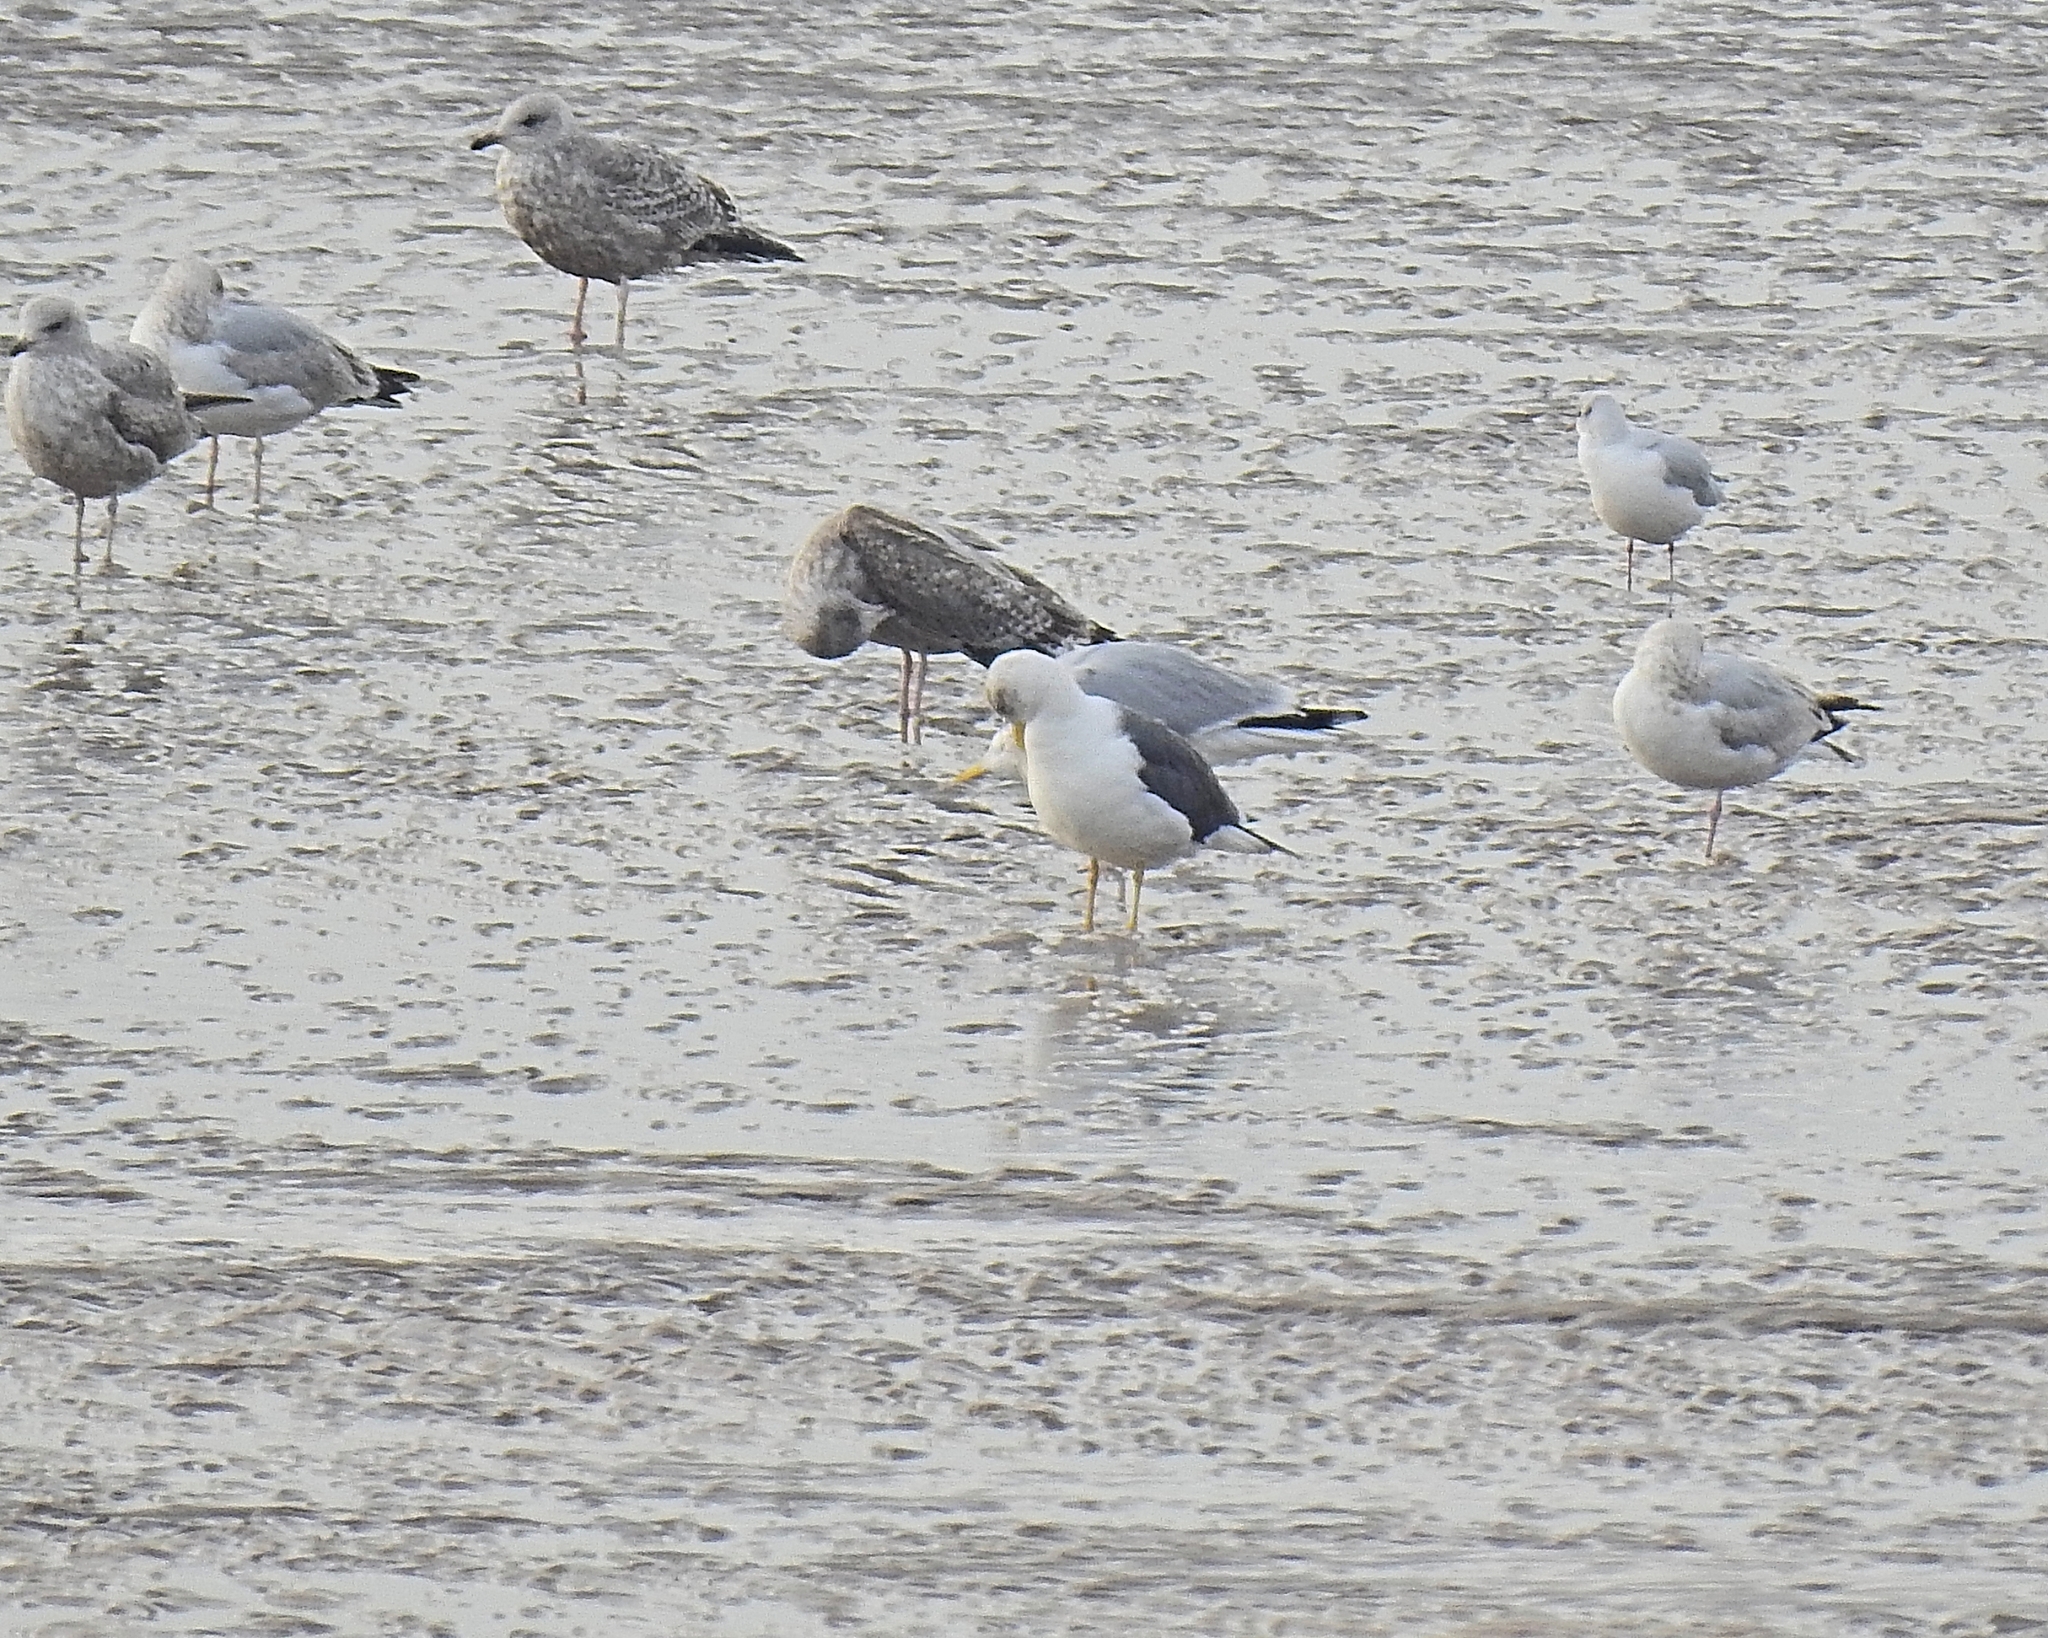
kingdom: Animalia
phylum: Chordata
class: Aves
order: Charadriiformes
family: Laridae
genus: Larus
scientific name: Larus fuscus
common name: Lesser black-backed gull
